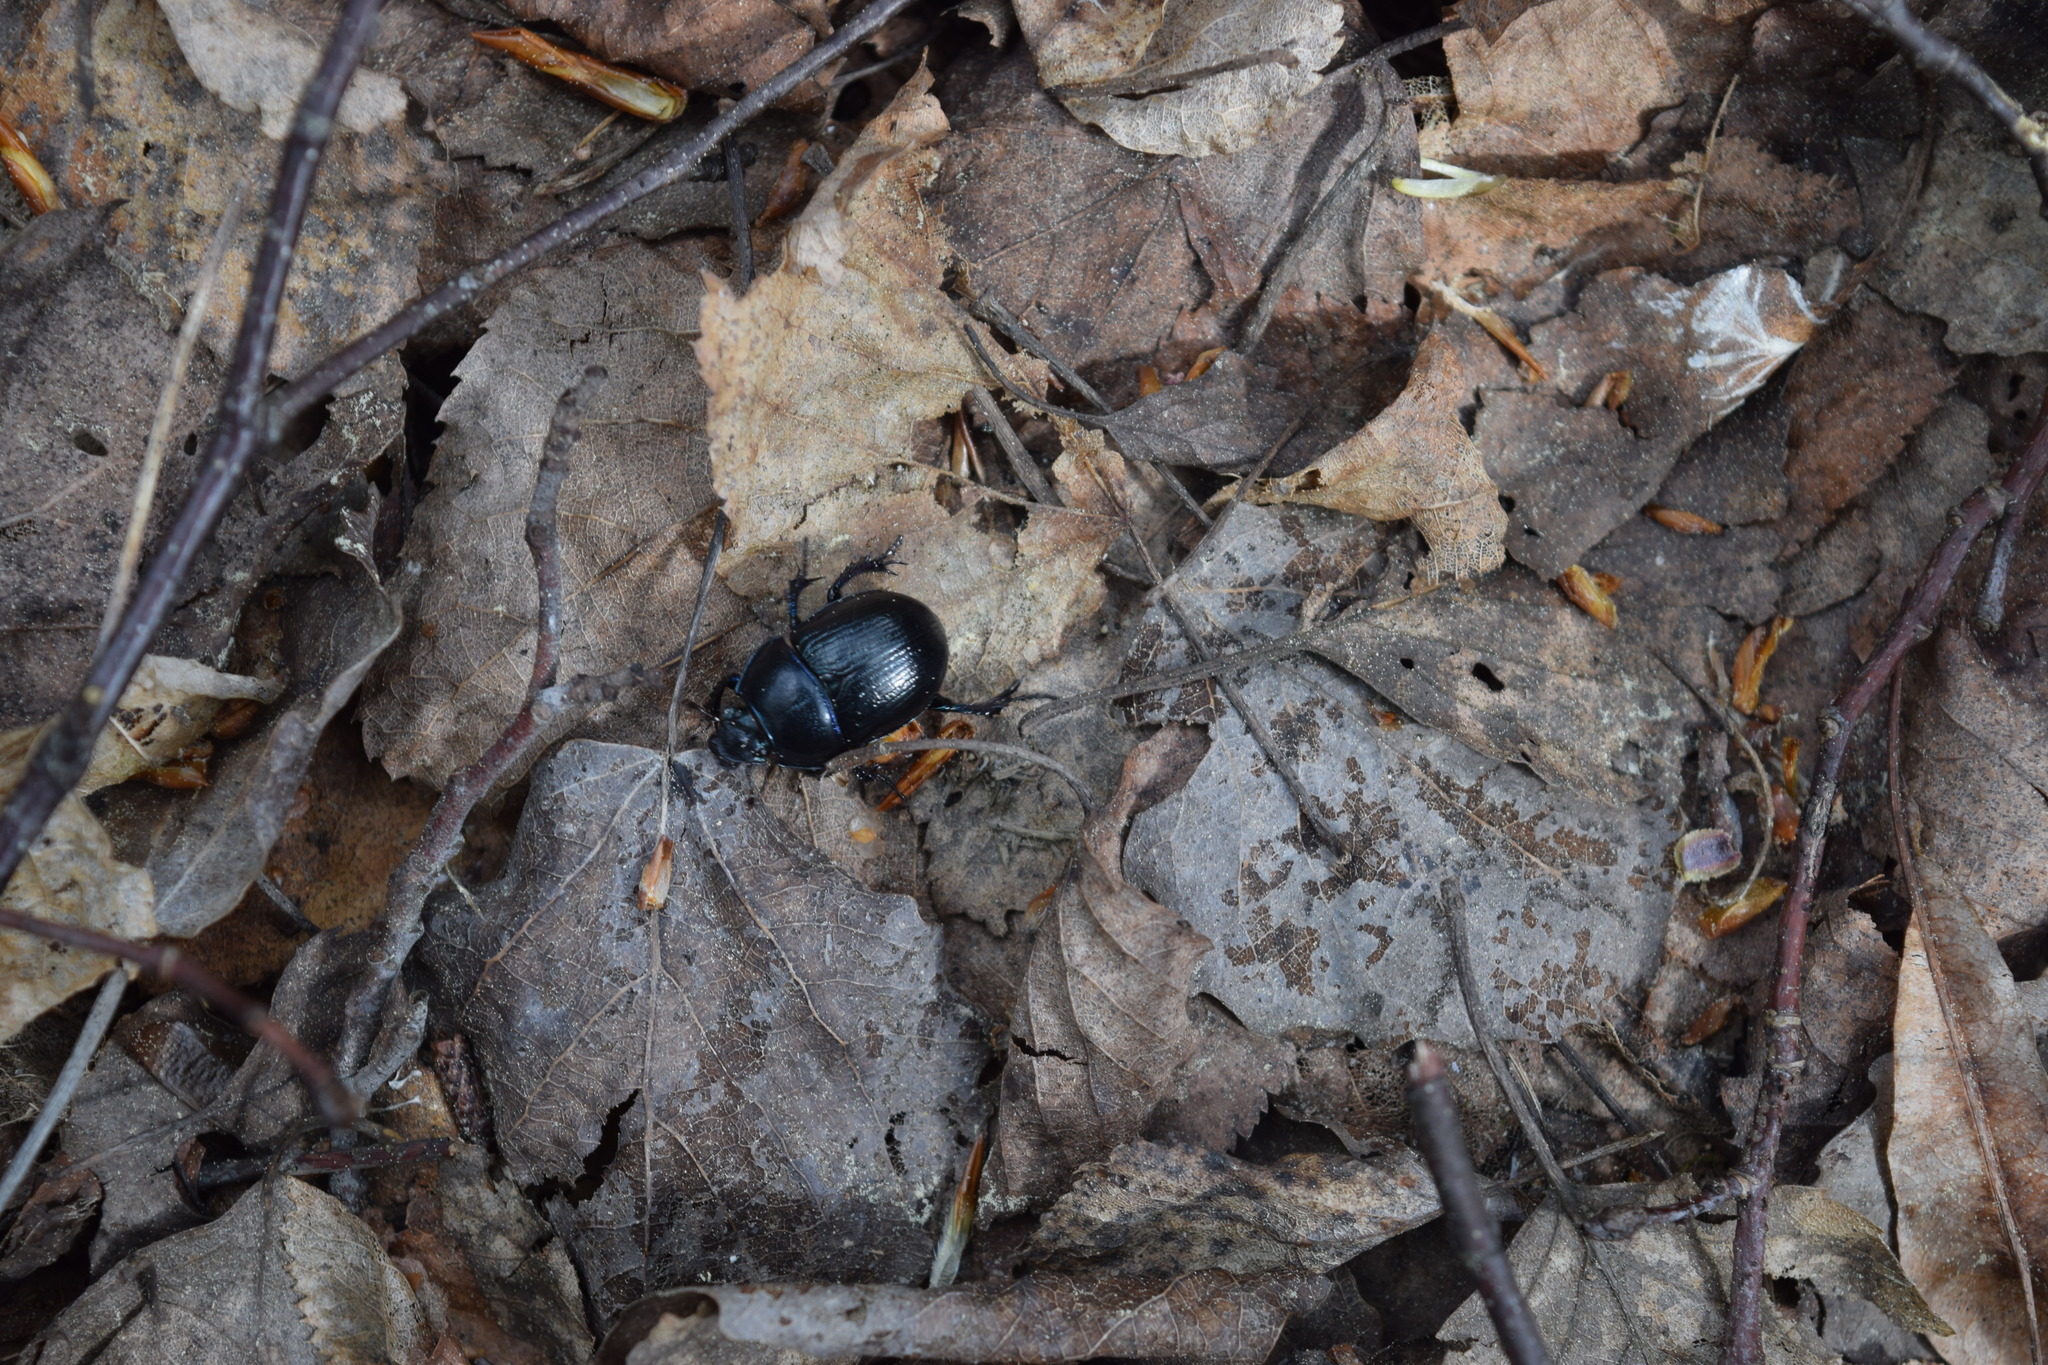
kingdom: Animalia
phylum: Arthropoda
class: Insecta
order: Coleoptera
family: Geotrupidae
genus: Anoplotrupes
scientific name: Anoplotrupes stercorosus
